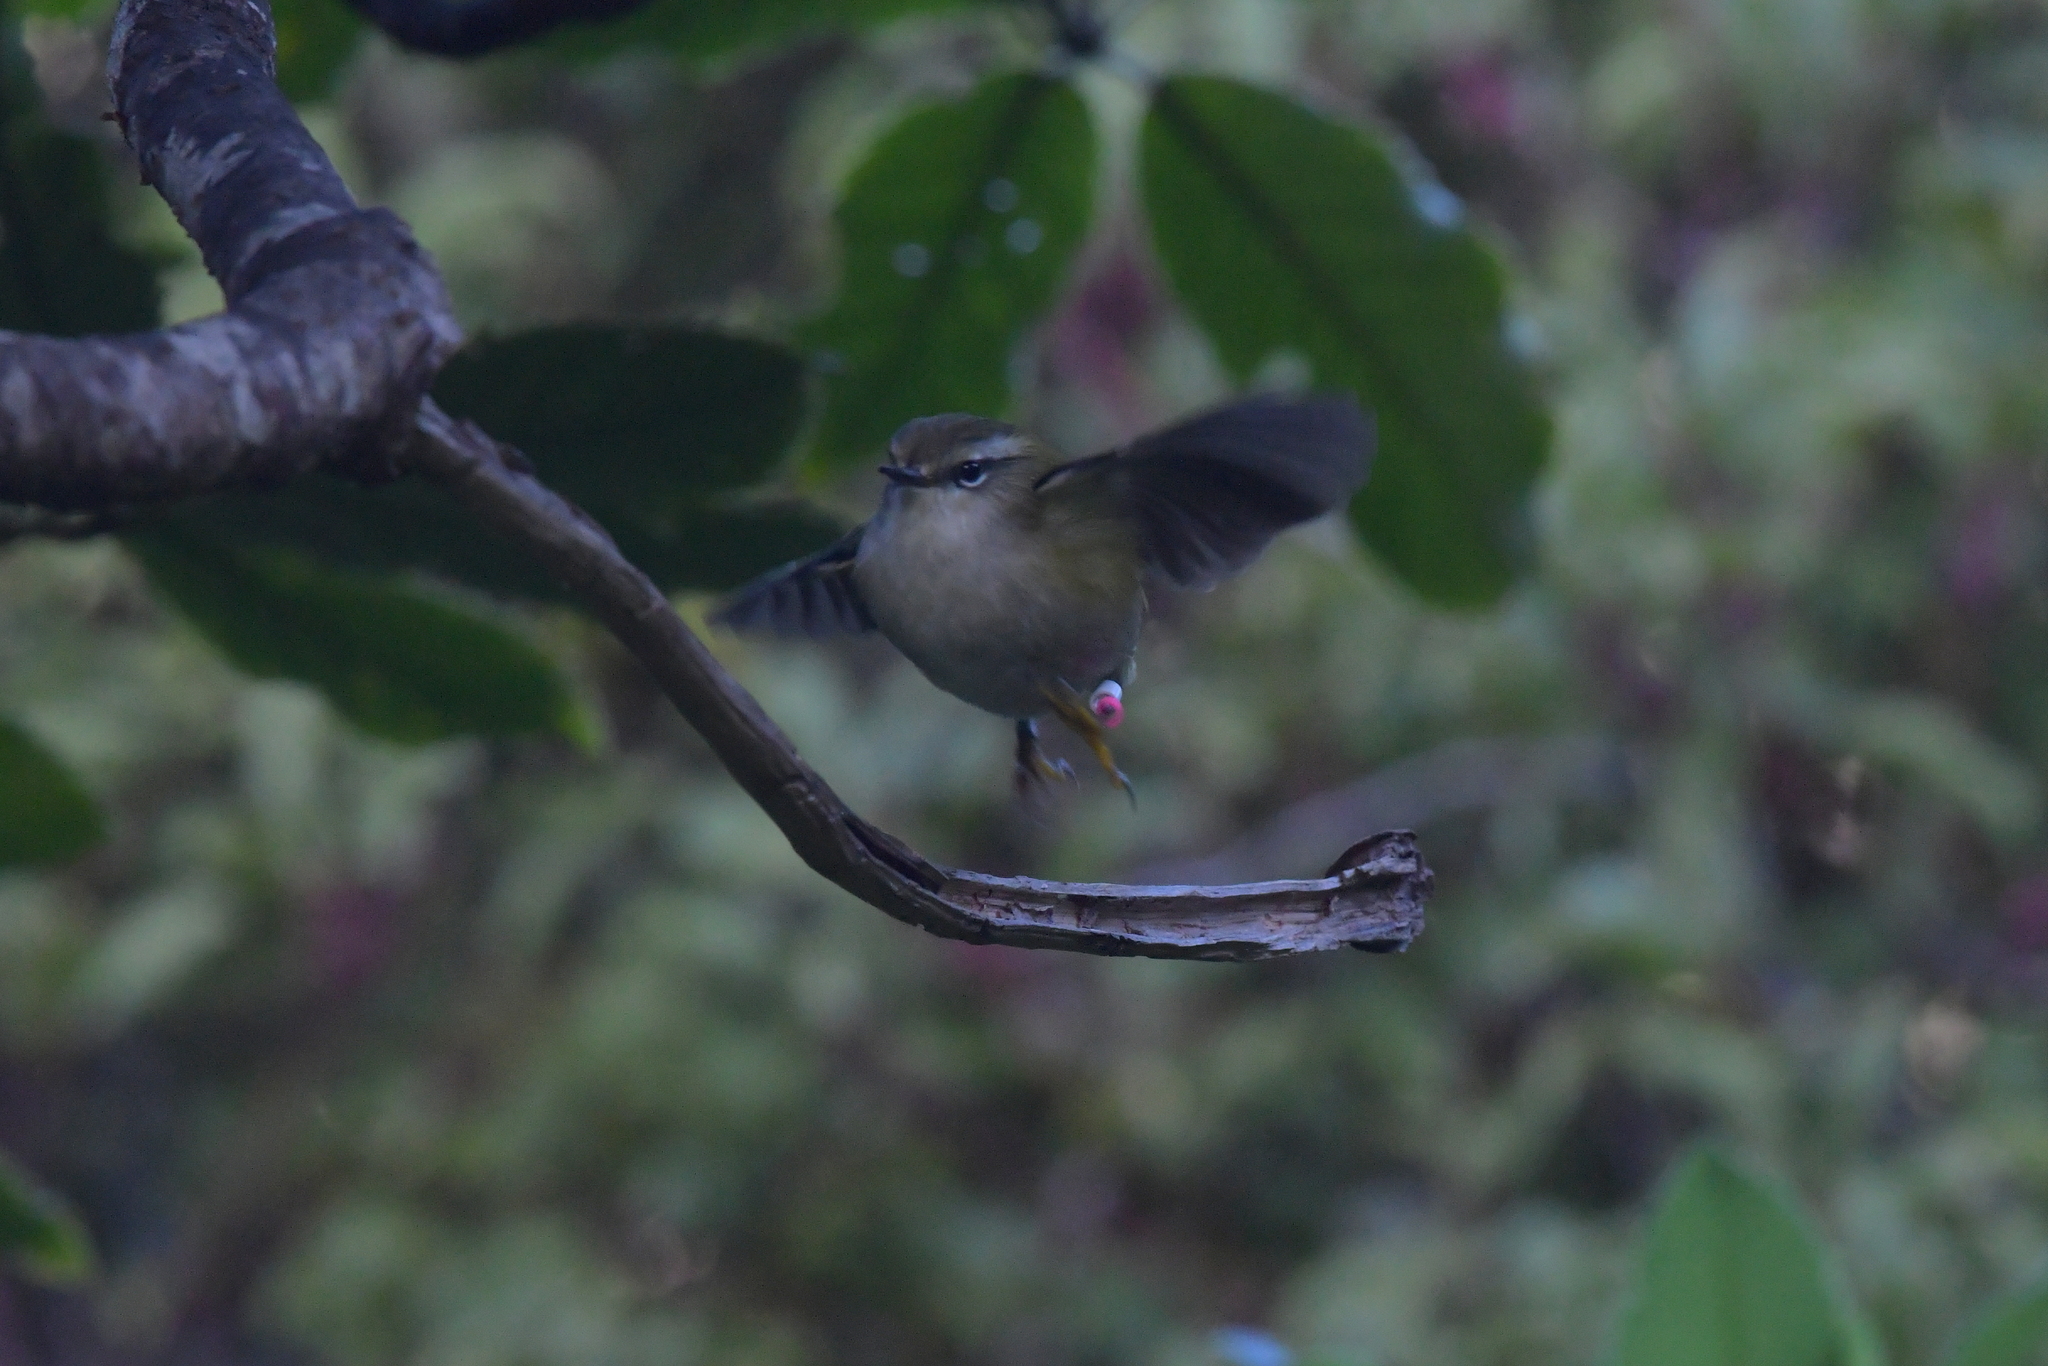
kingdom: Animalia
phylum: Chordata
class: Aves
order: Passeriformes
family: Acanthisittidae
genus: Acanthisitta
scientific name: Acanthisitta chloris
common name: Rifleman
